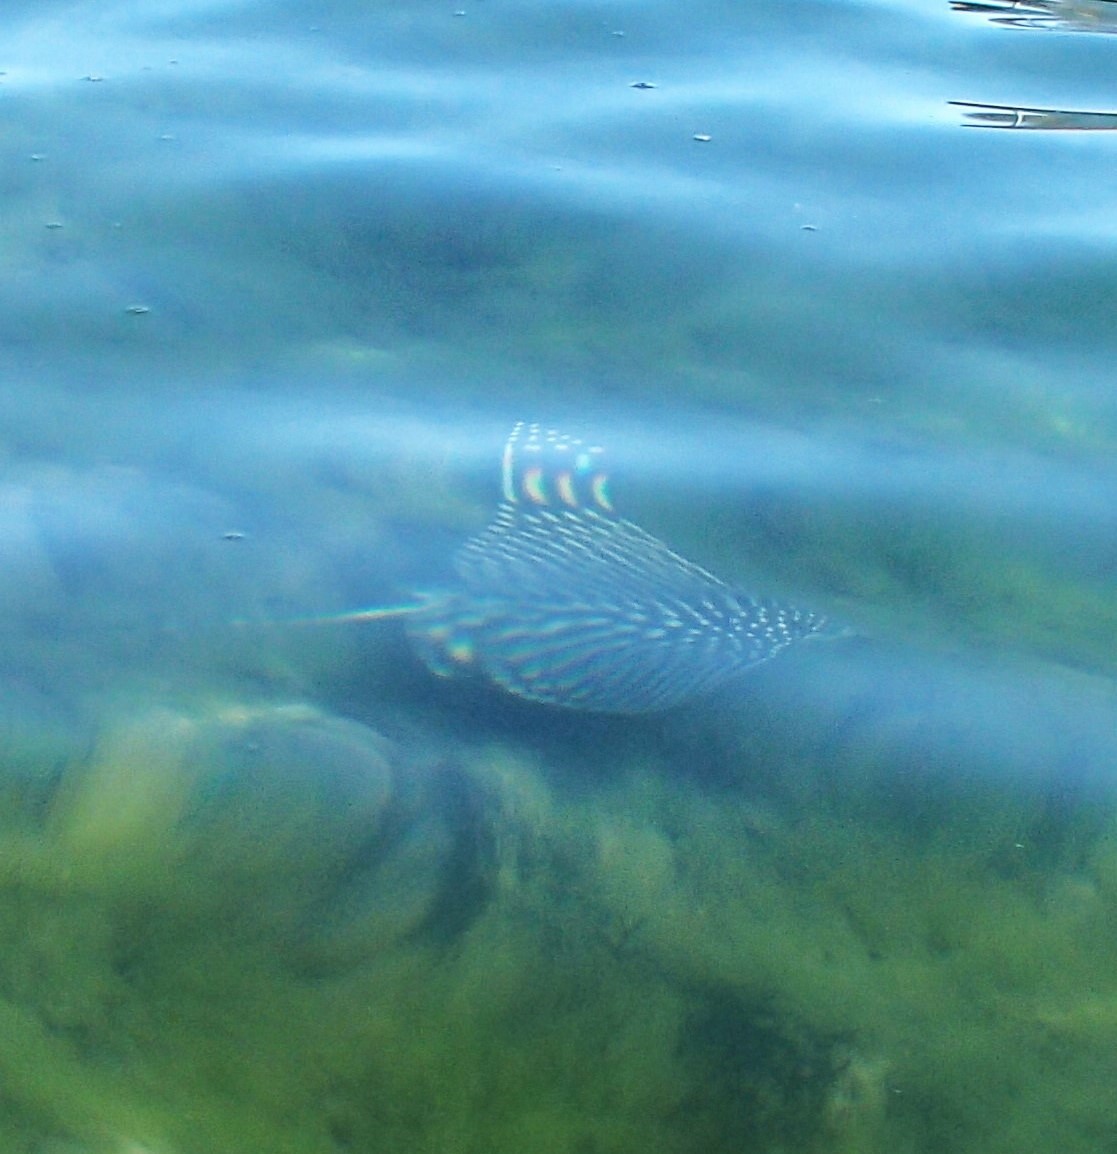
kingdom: Animalia
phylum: Chordata
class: Elasmobranchii
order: Myliobatiformes
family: Myliobatidae
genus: Aetobatus
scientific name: Aetobatus laticeps
